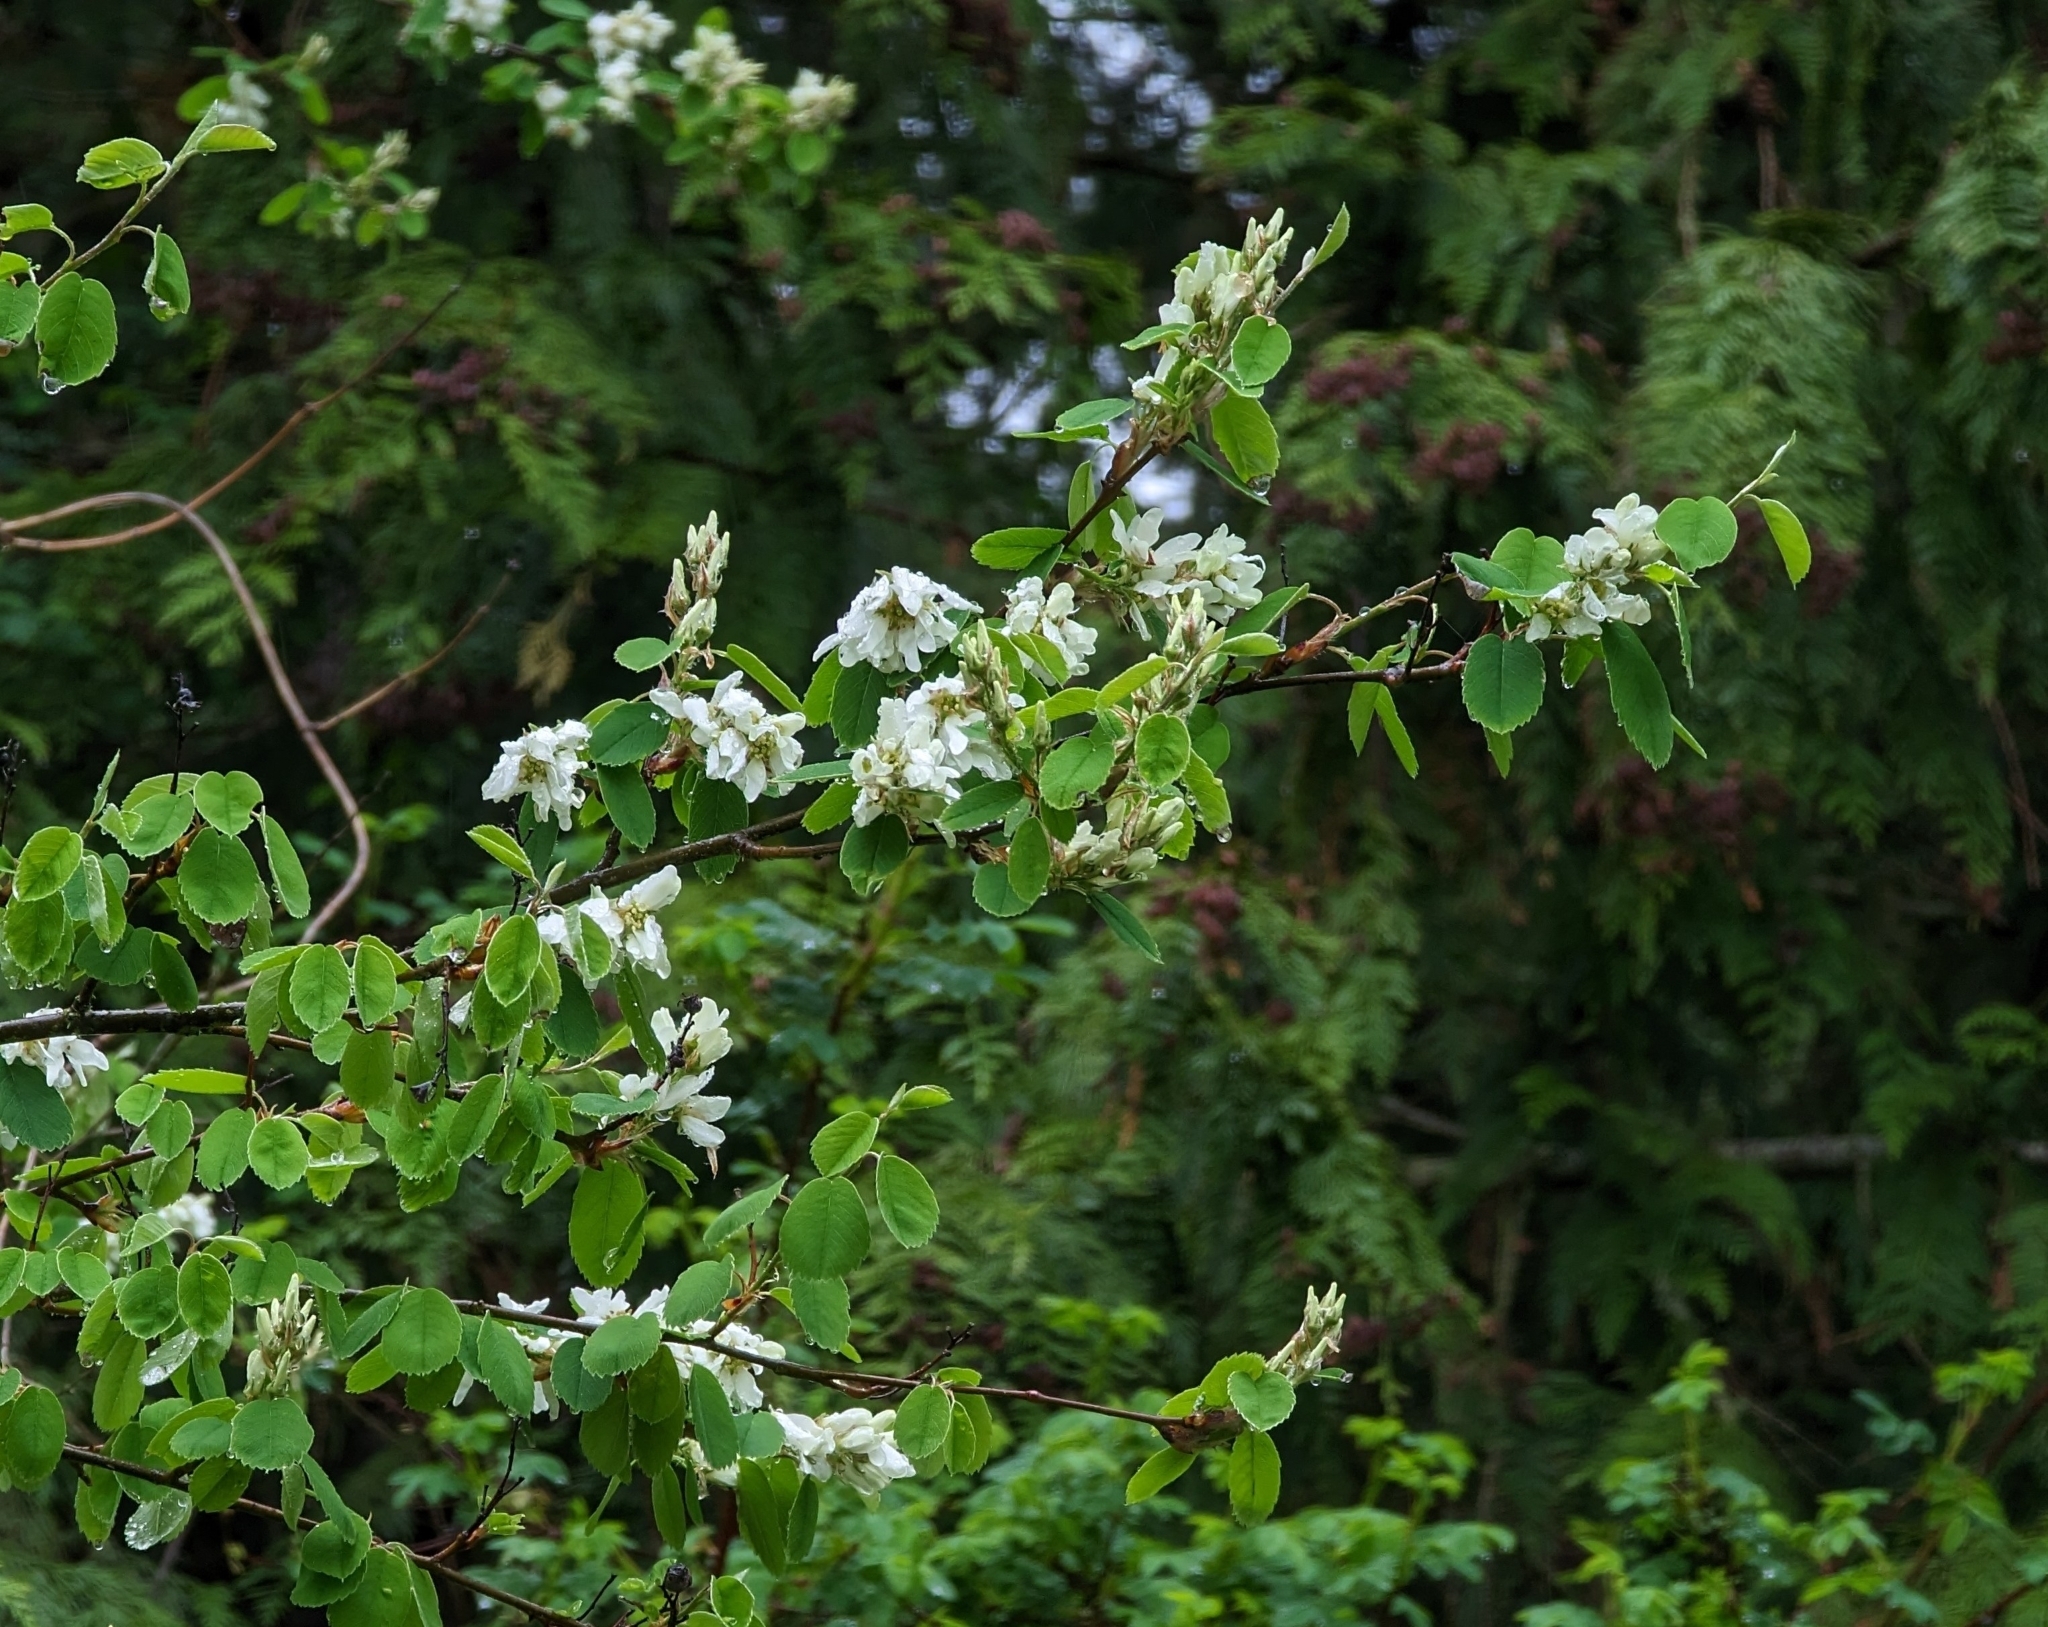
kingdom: Plantae
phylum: Tracheophyta
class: Magnoliopsida
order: Rosales
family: Rosaceae
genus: Amelanchier
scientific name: Amelanchier alnifolia
